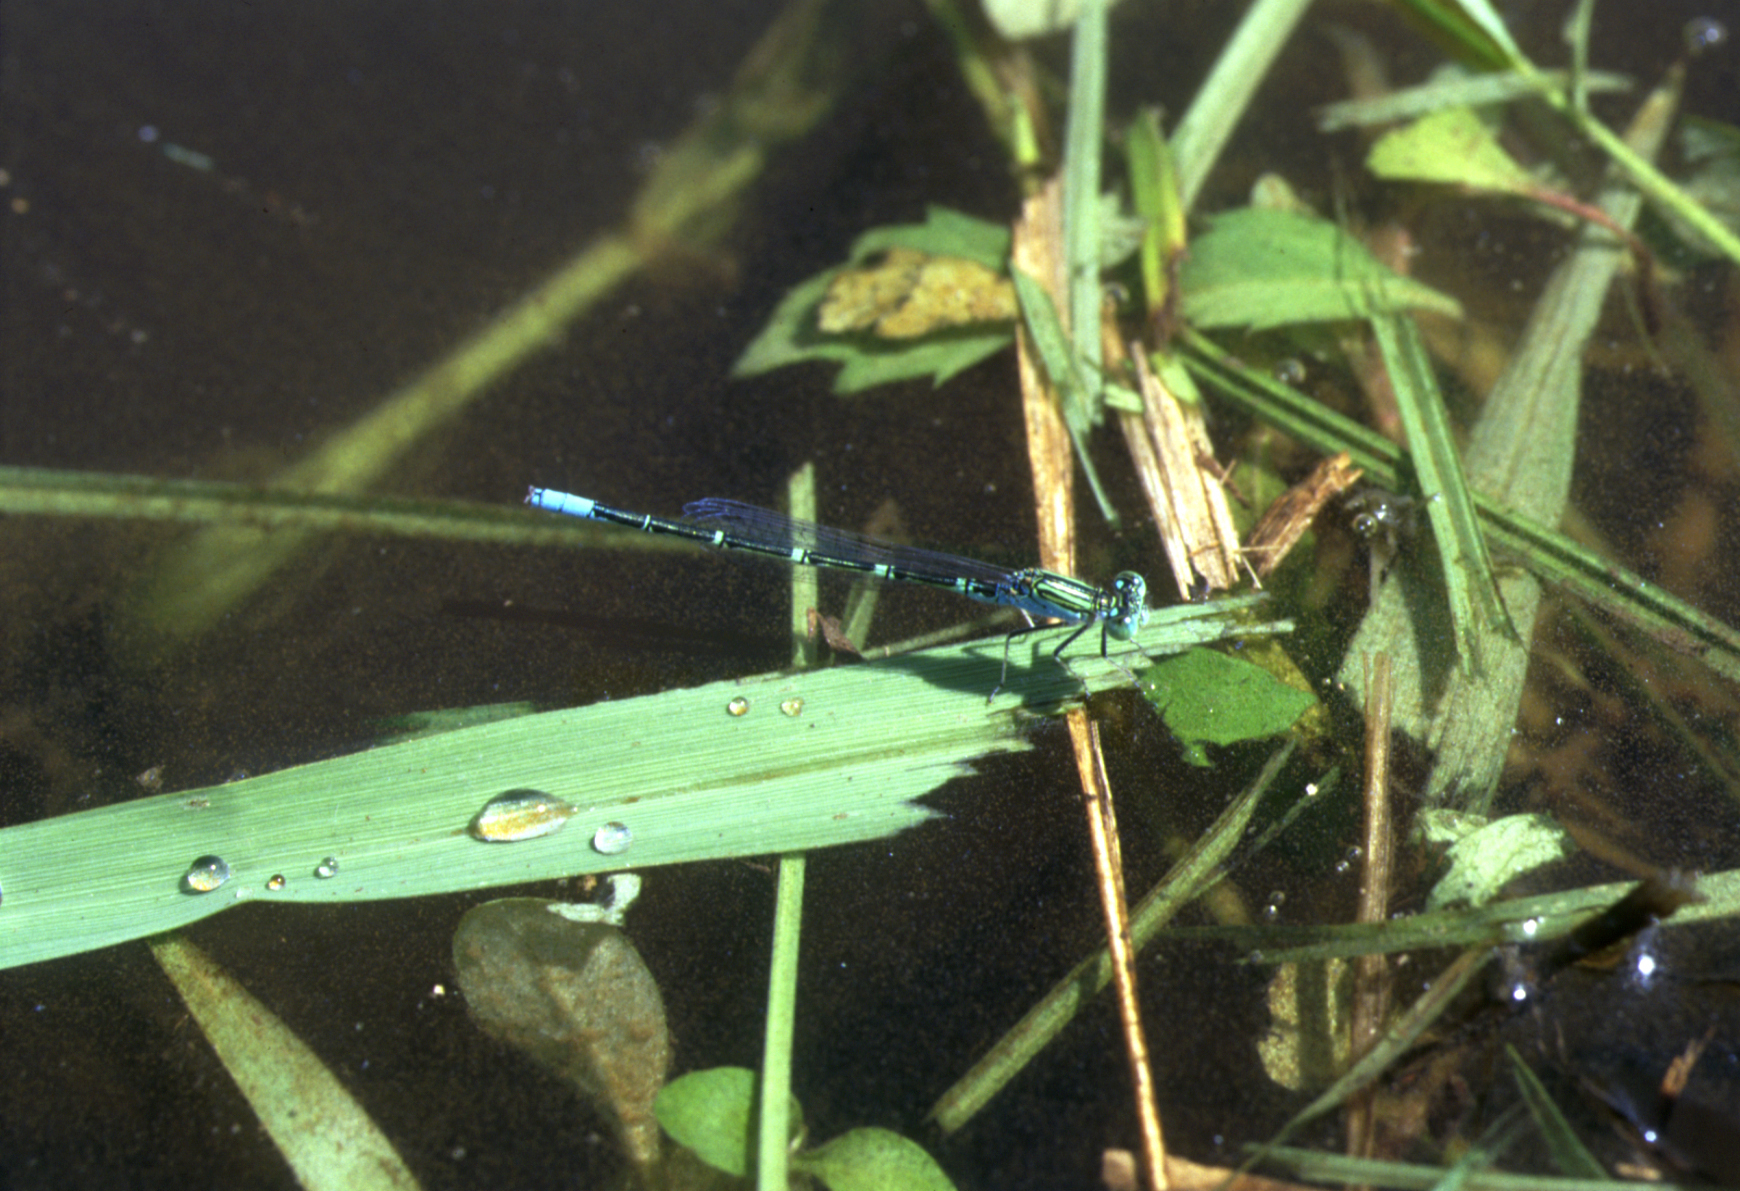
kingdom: Animalia
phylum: Arthropoda
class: Insecta
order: Odonata
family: Coenagrionidae
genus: Paracercion
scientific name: Paracercion hieroglyphicum
